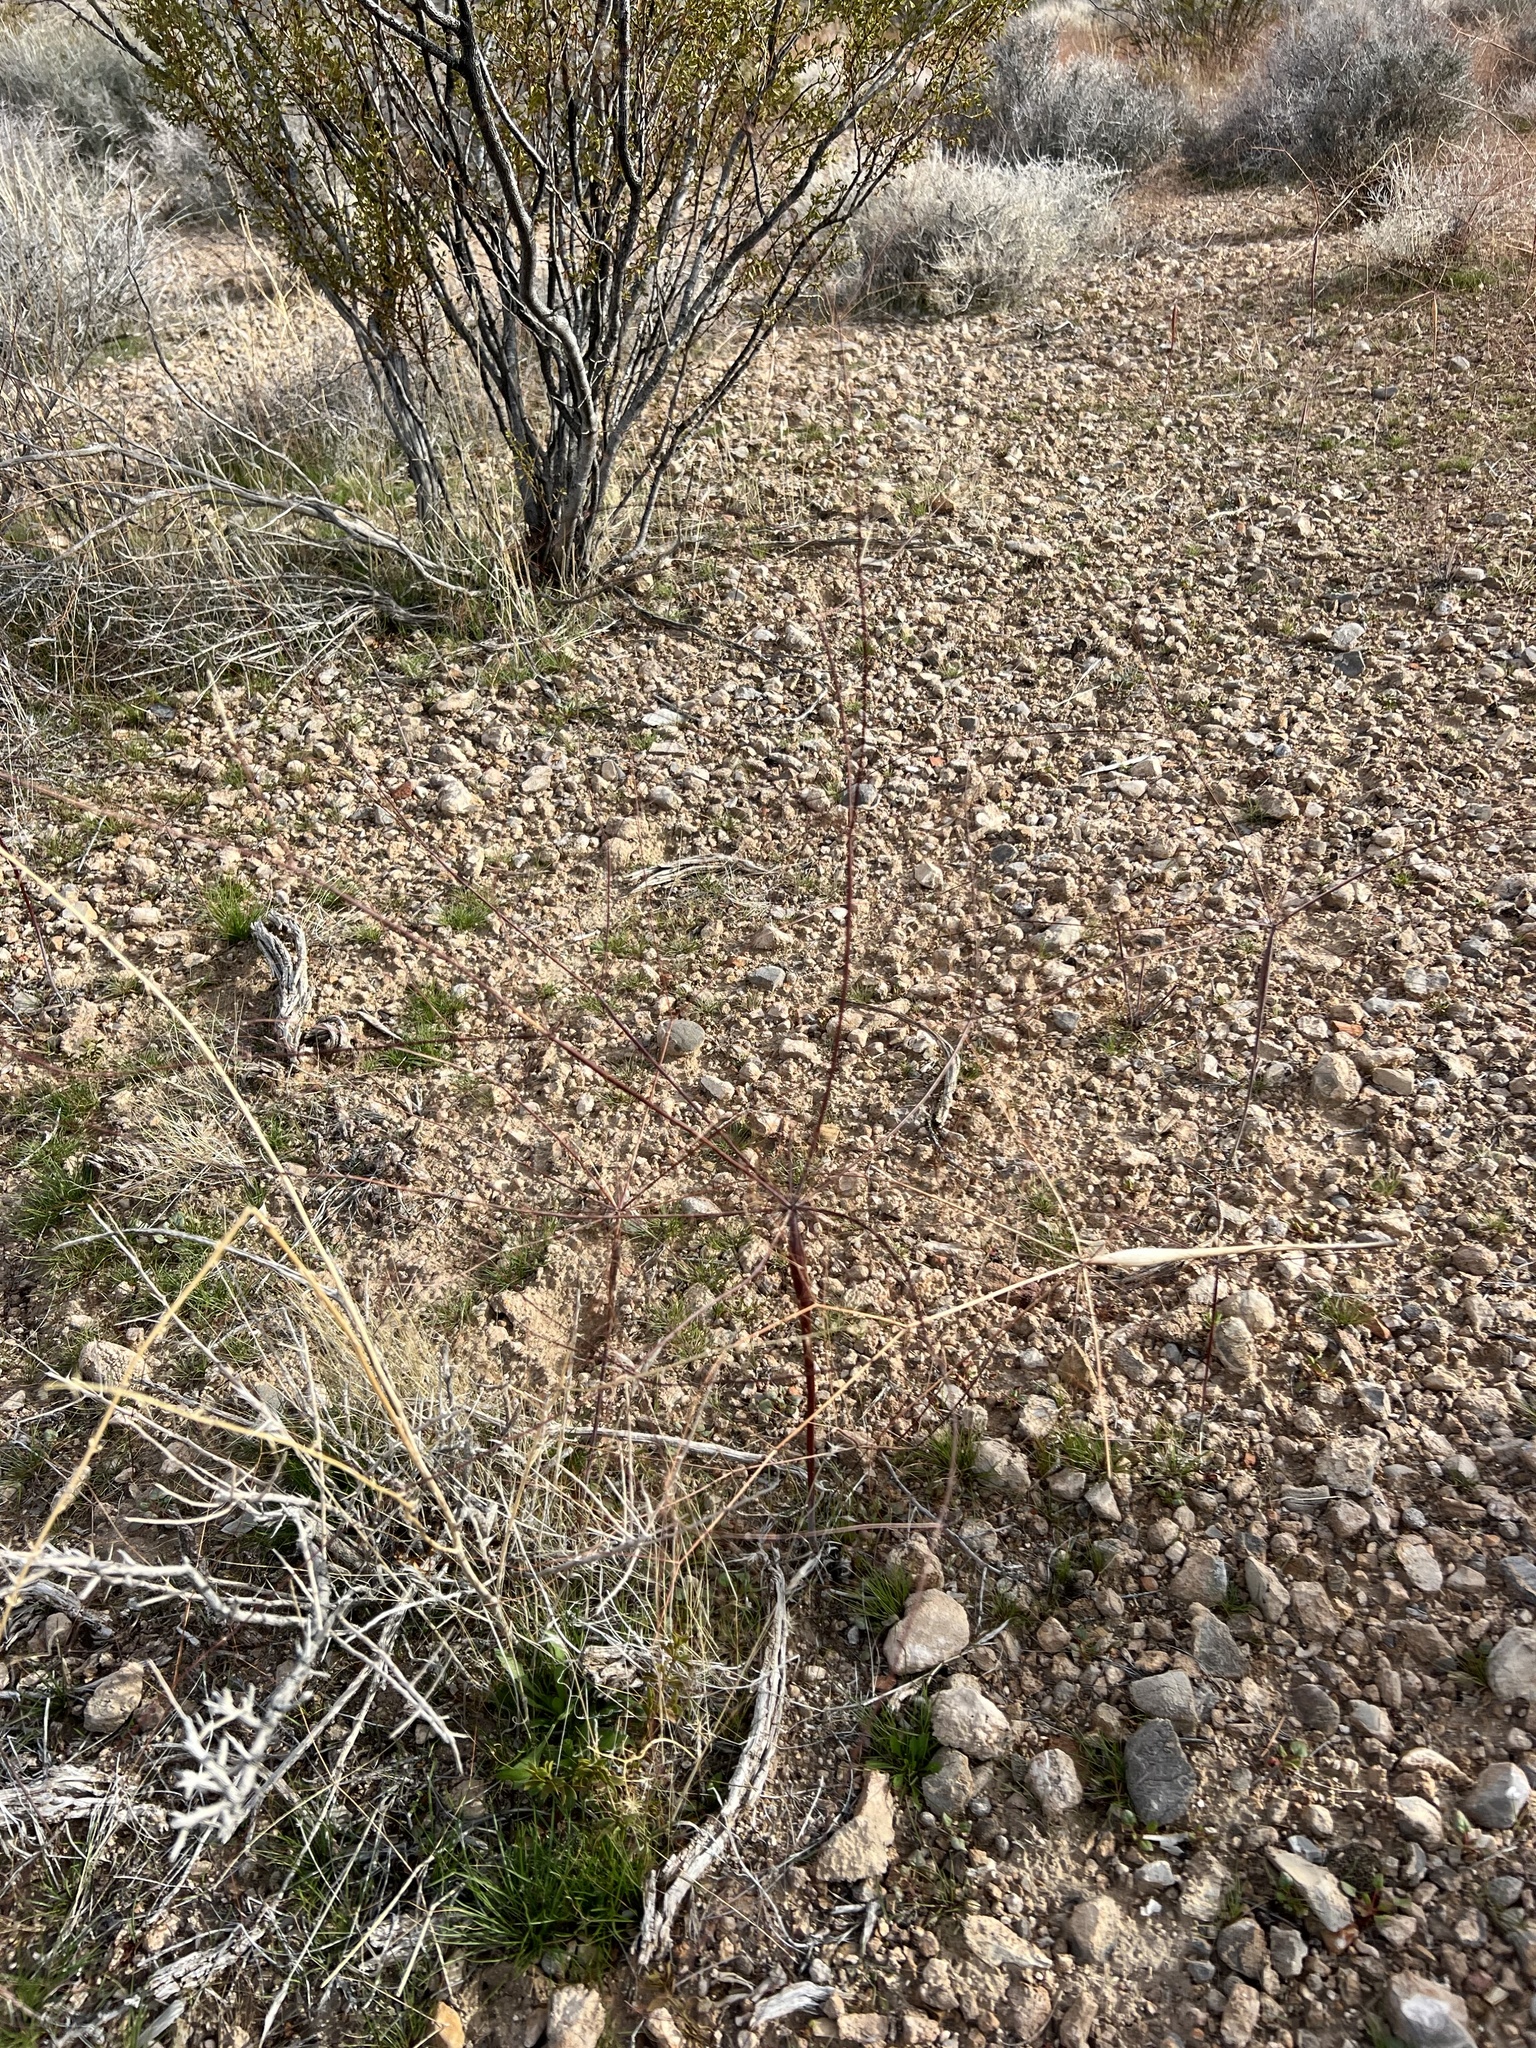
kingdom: Plantae
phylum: Tracheophyta
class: Magnoliopsida
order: Caryophyllales
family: Polygonaceae
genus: Eriogonum
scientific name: Eriogonum inflatum
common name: Desert trumpet
